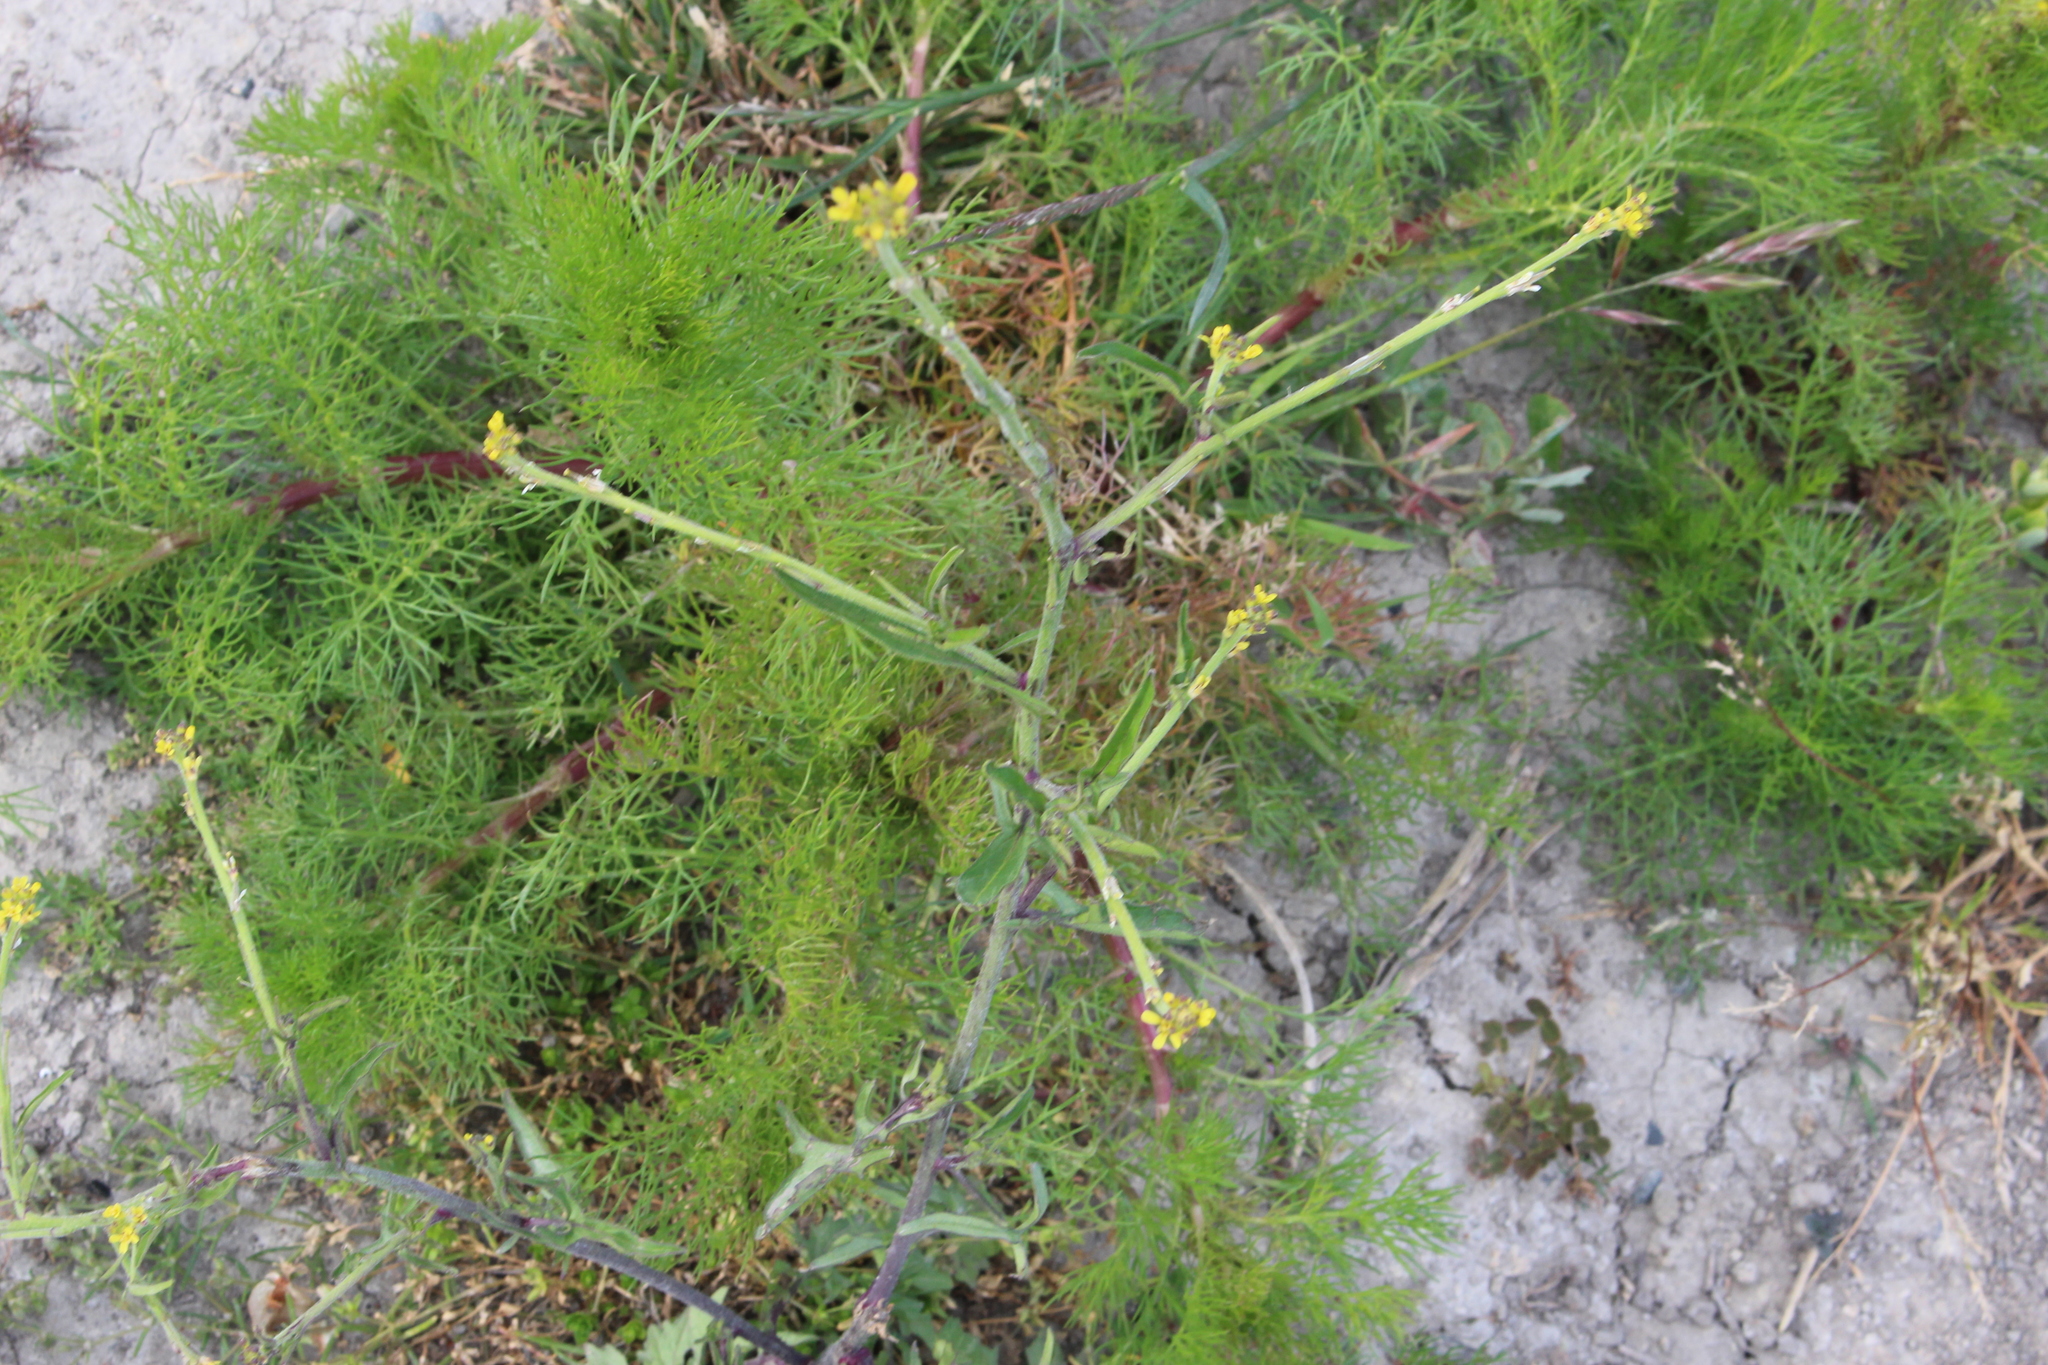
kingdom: Plantae
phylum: Tracheophyta
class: Magnoliopsida
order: Brassicales
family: Brassicaceae
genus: Sisymbrium
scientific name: Sisymbrium officinale
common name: Hedge mustard
